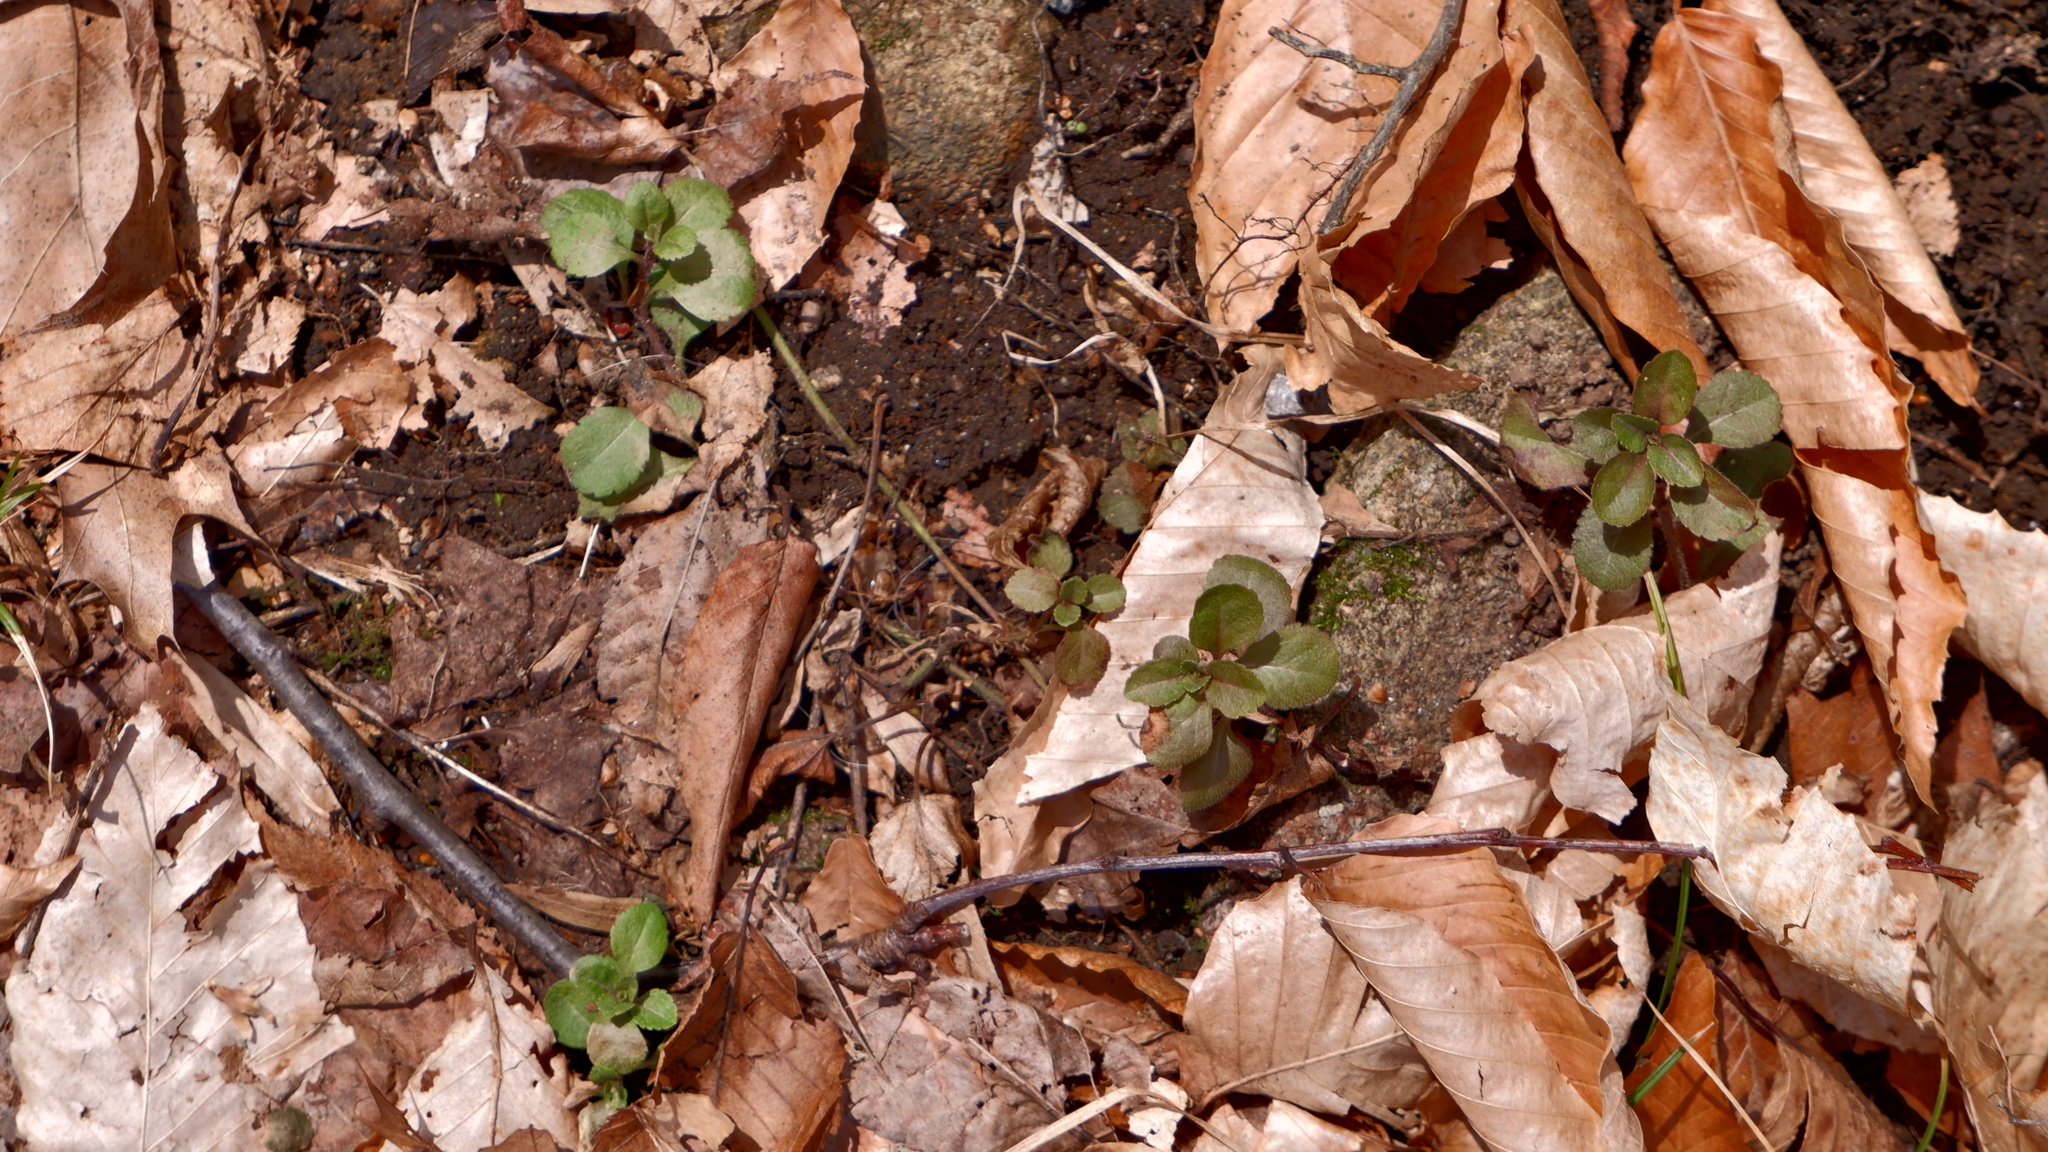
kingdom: Plantae
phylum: Tracheophyta
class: Magnoliopsida
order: Lamiales
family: Plantaginaceae
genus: Veronica
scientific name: Veronica officinalis
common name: Common speedwell
